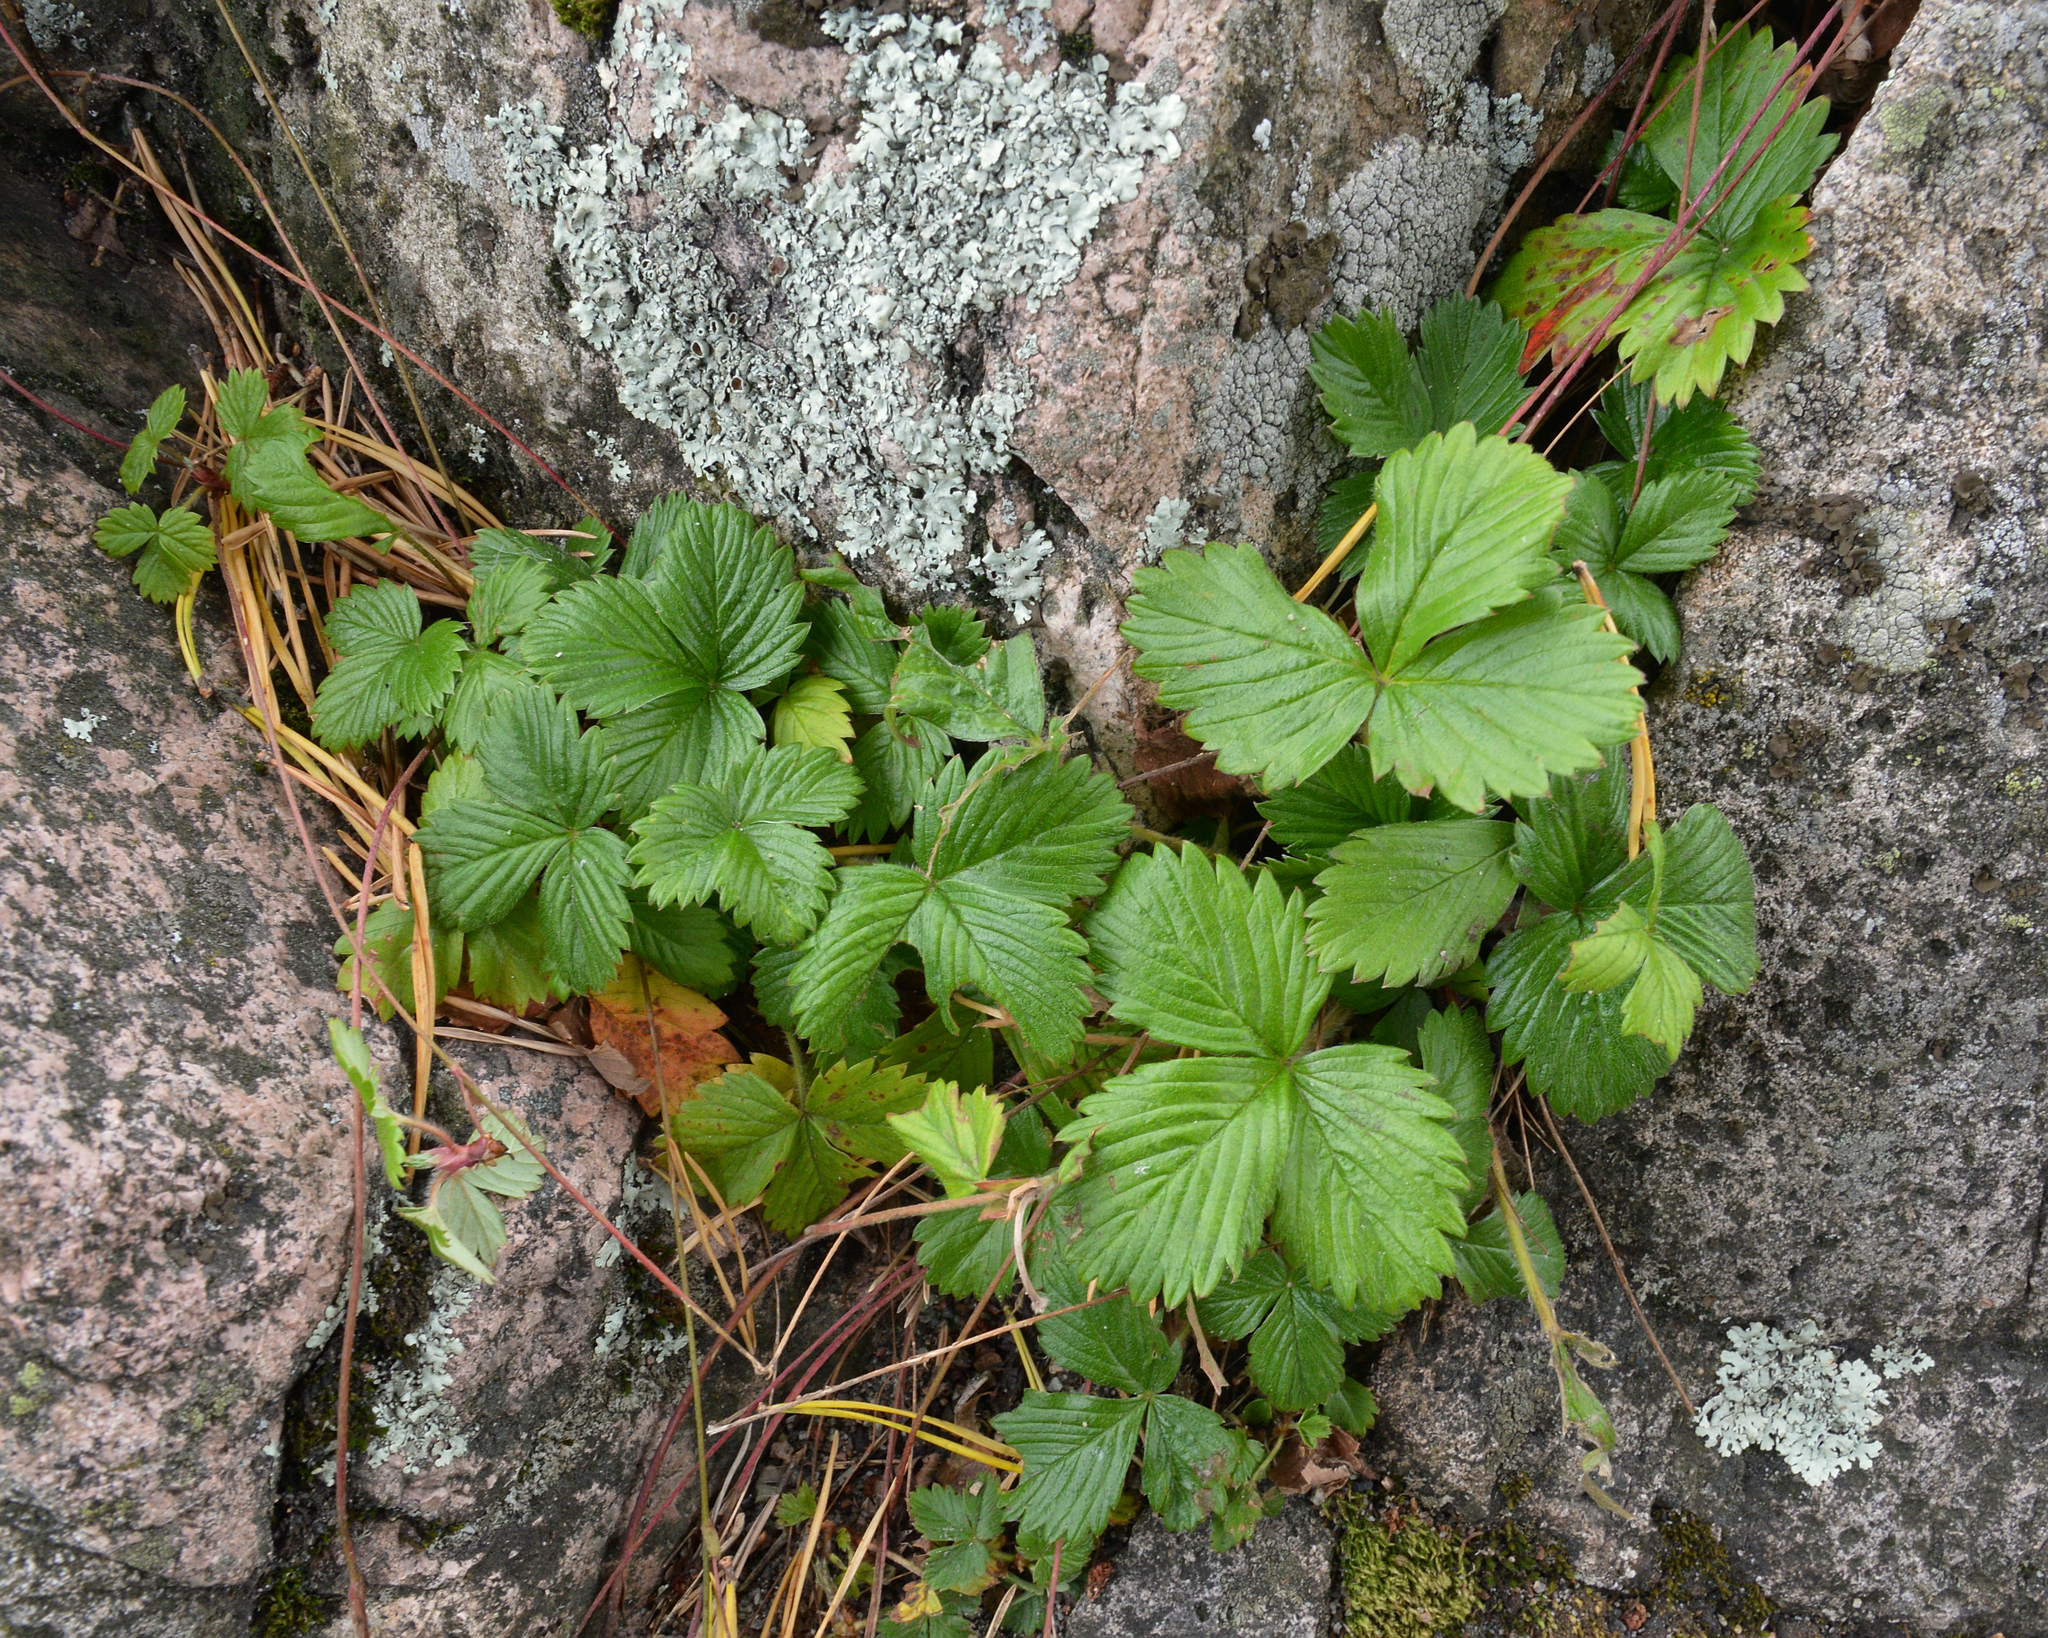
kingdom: Plantae
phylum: Tracheophyta
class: Magnoliopsida
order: Rosales
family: Rosaceae
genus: Fragaria
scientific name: Fragaria vesca
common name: Wild strawberry
